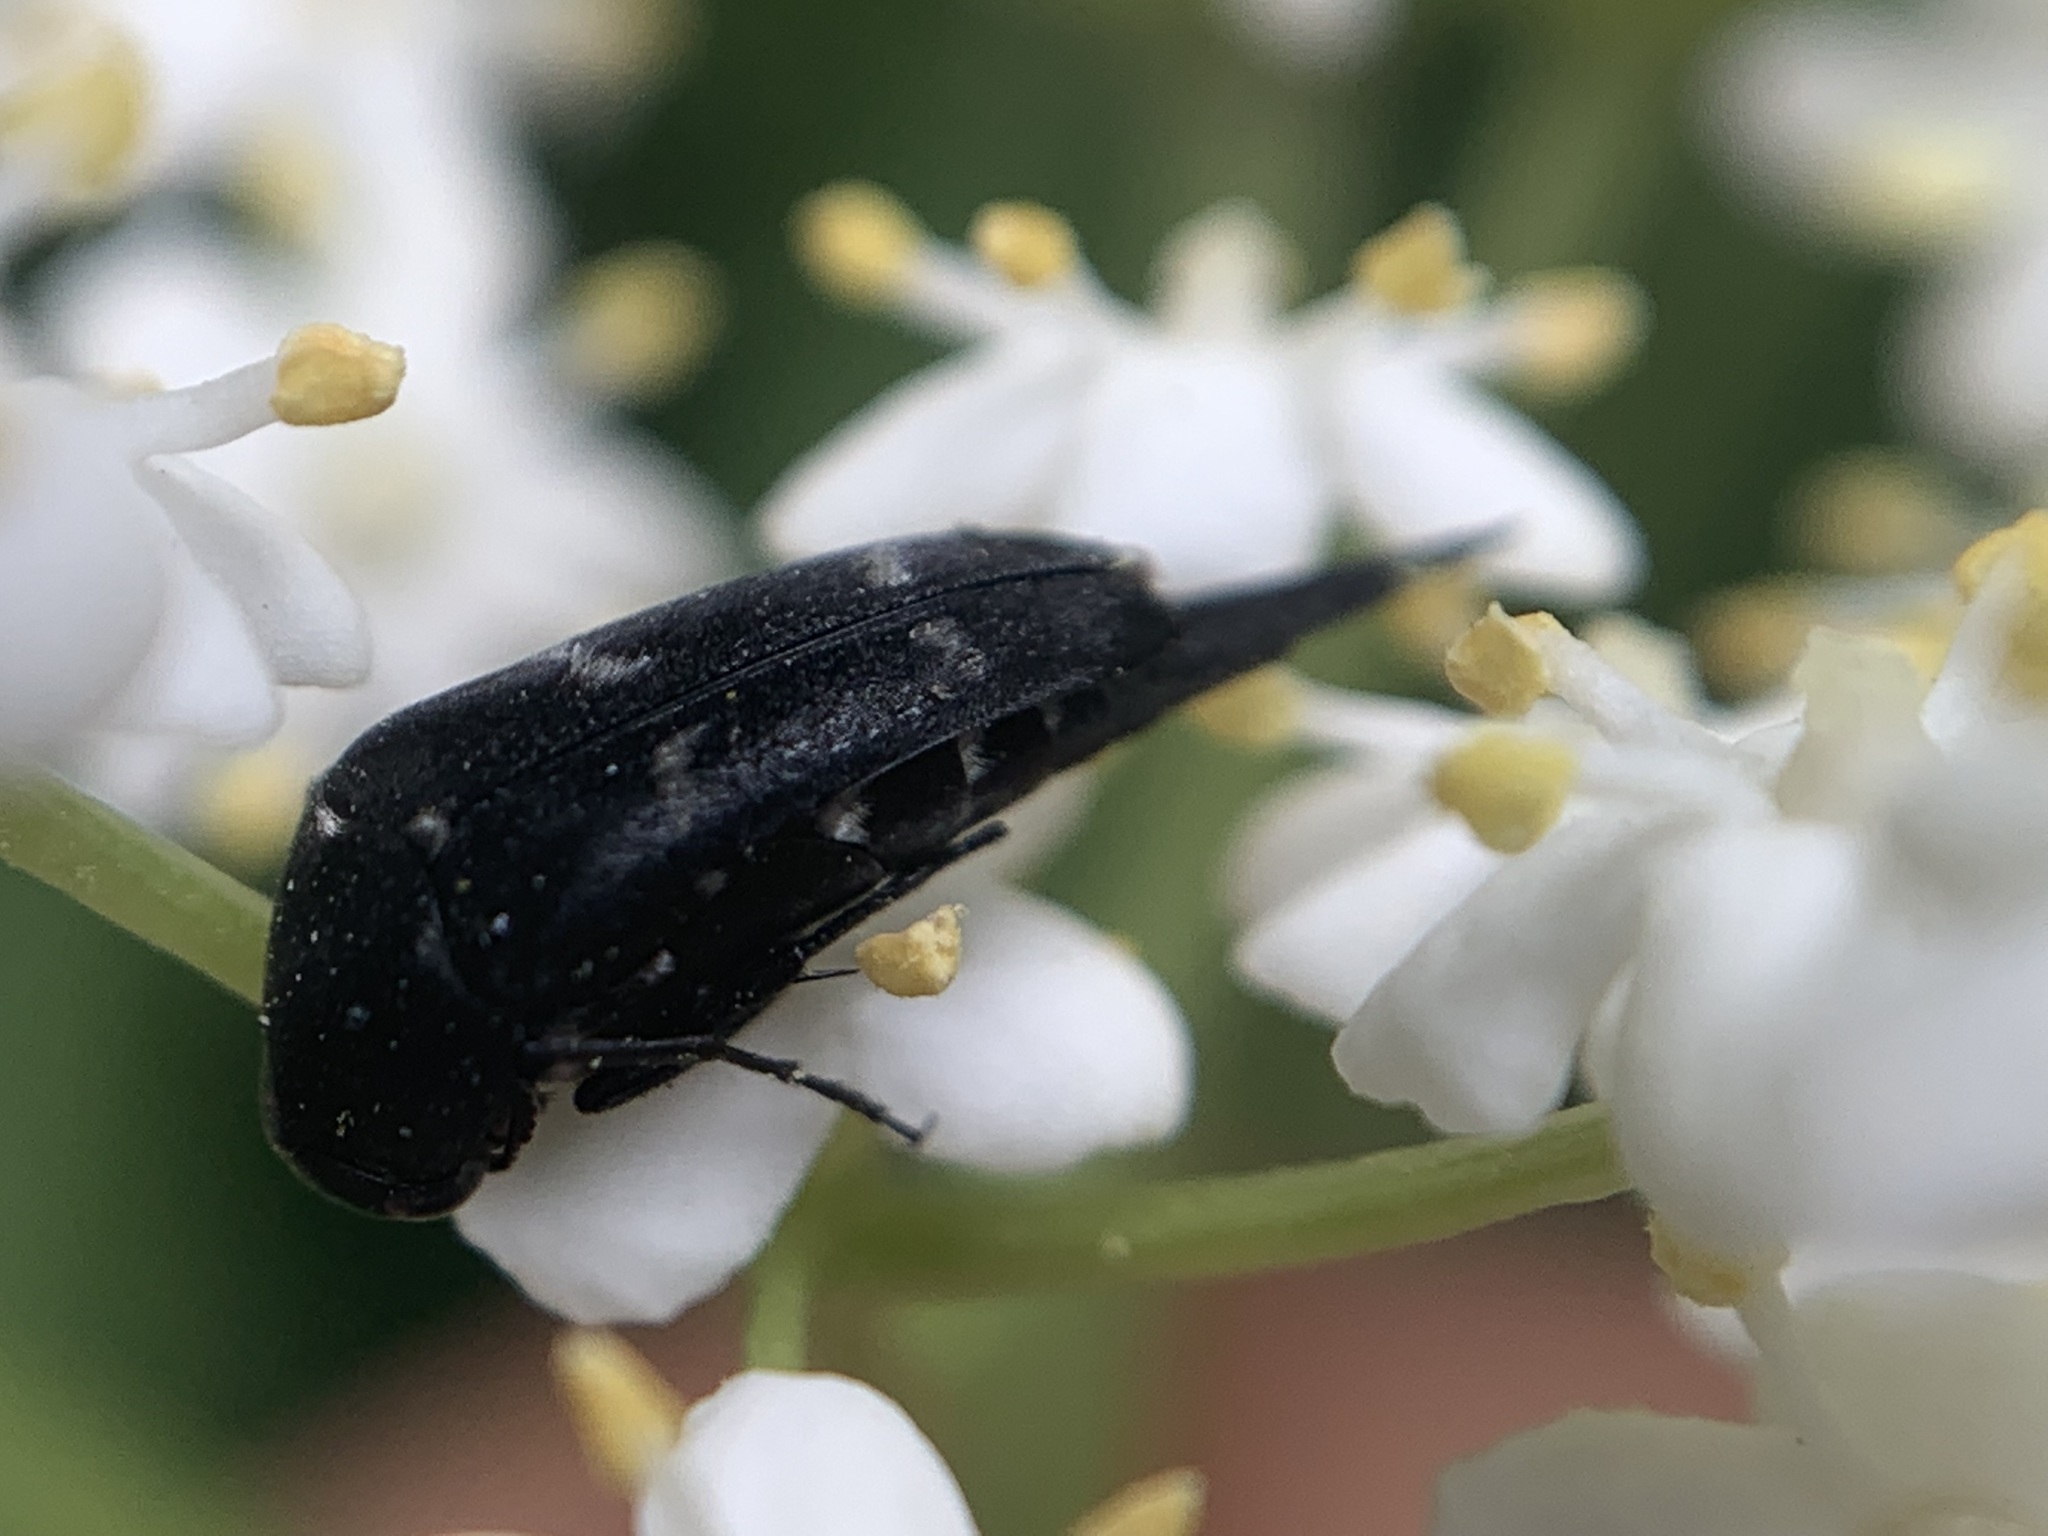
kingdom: Animalia
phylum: Arthropoda
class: Insecta
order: Coleoptera
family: Mordellidae
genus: Mordella
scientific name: Mordella
